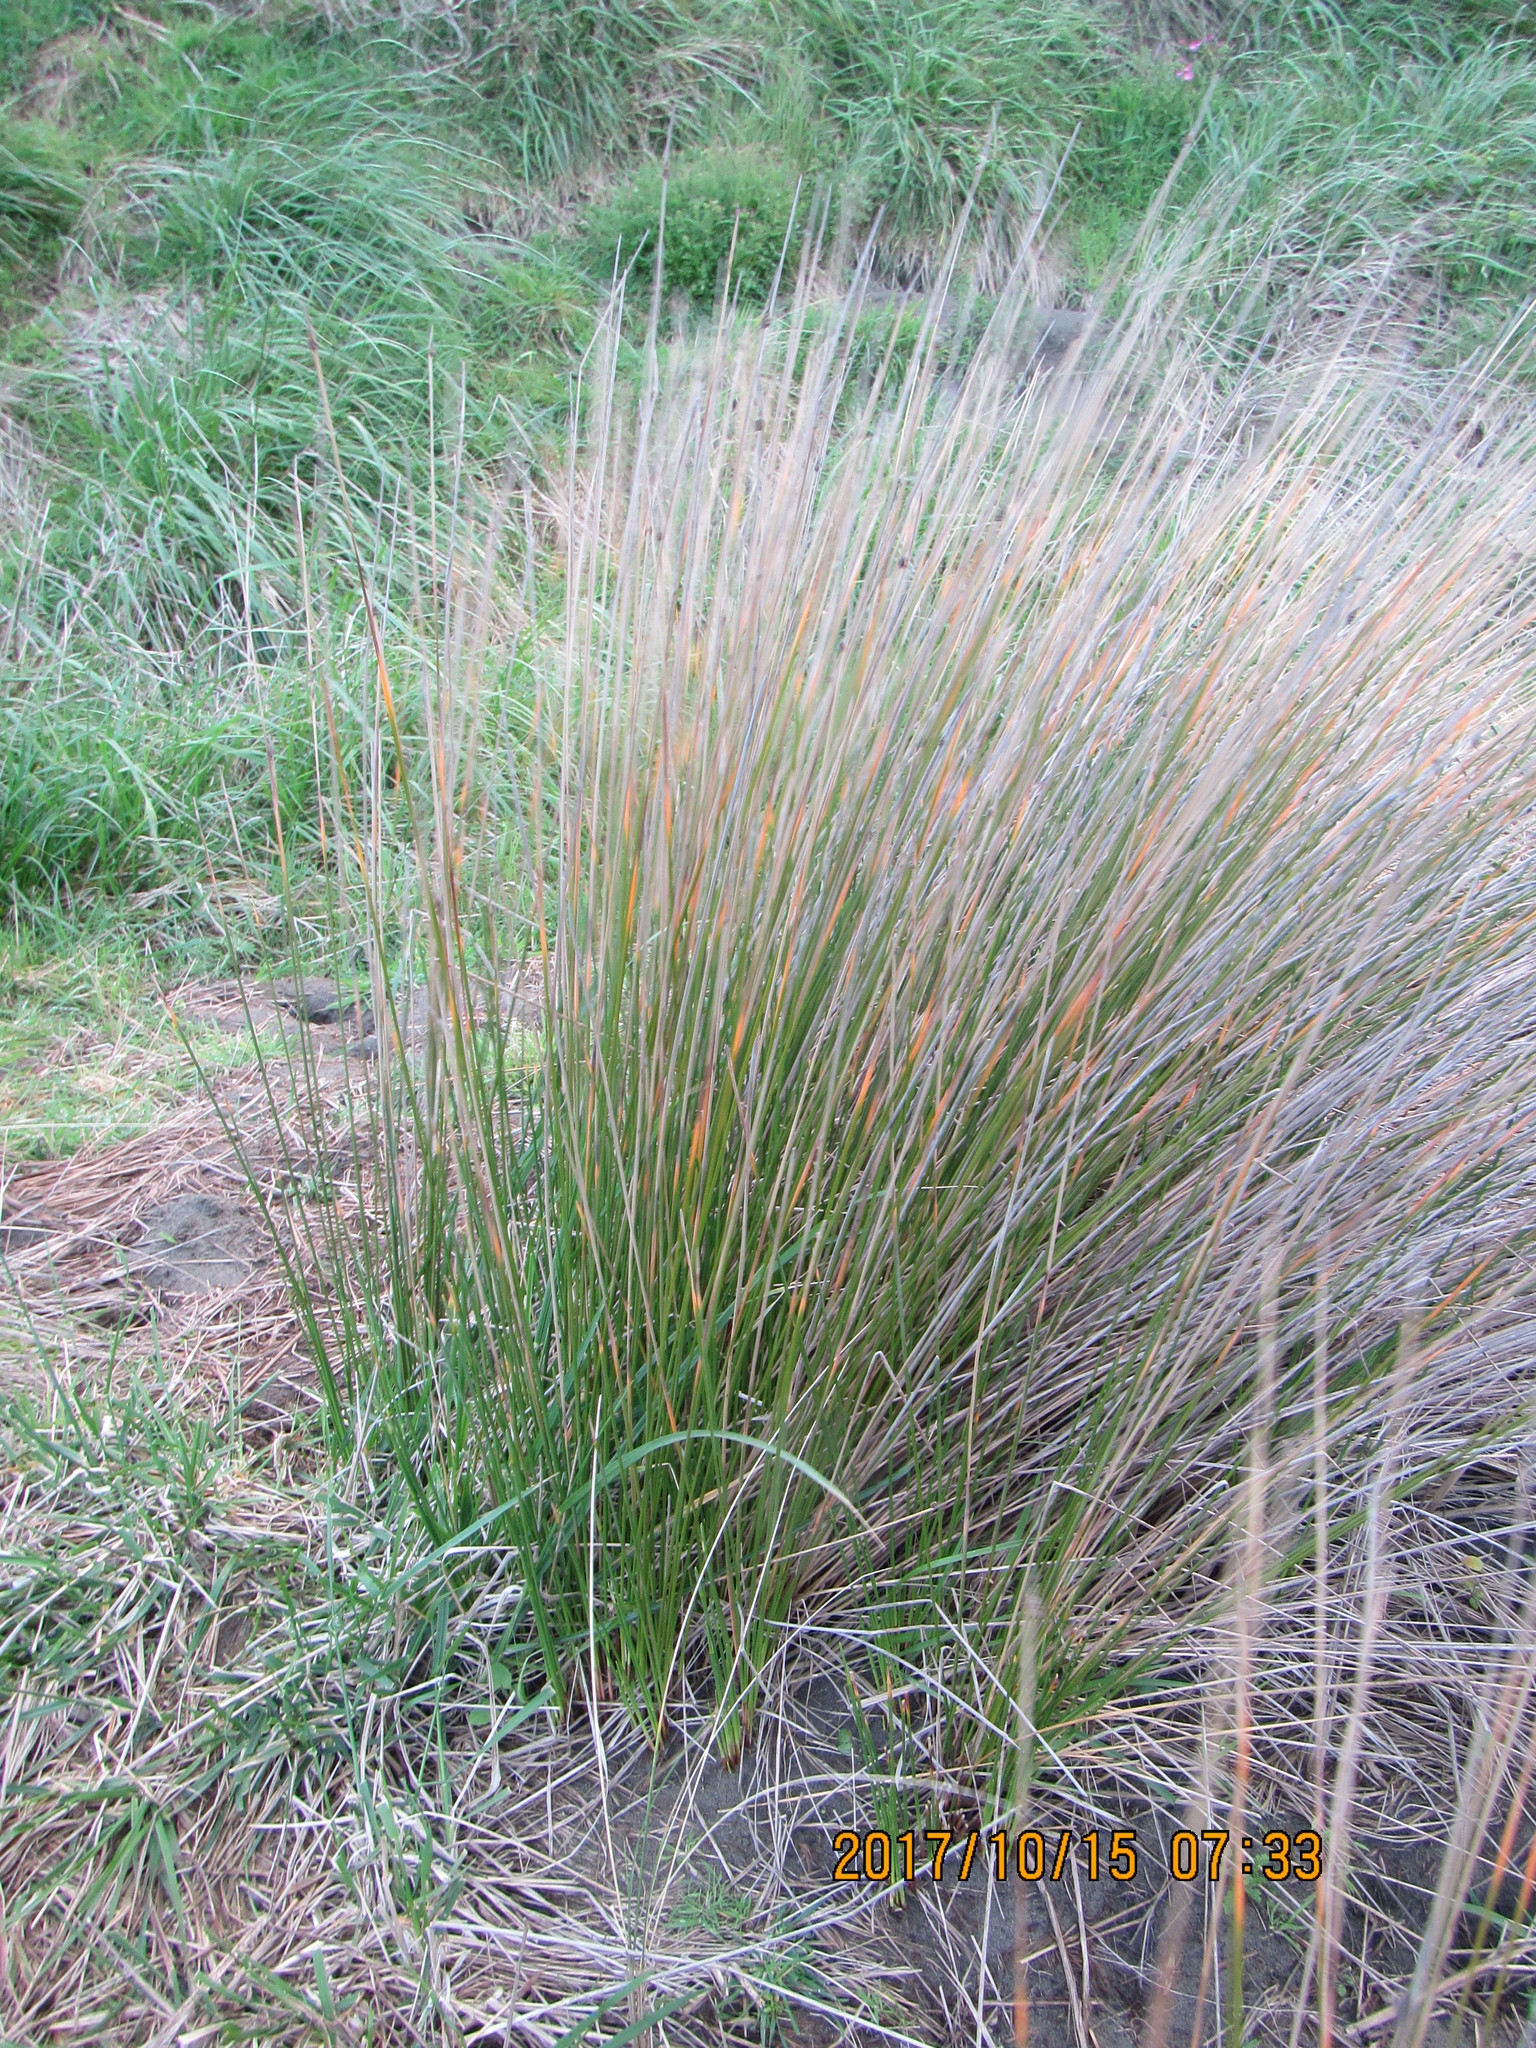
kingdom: Plantae
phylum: Tracheophyta
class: Liliopsida
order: Poales
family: Cyperaceae
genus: Ficinia
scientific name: Ficinia nodosa
